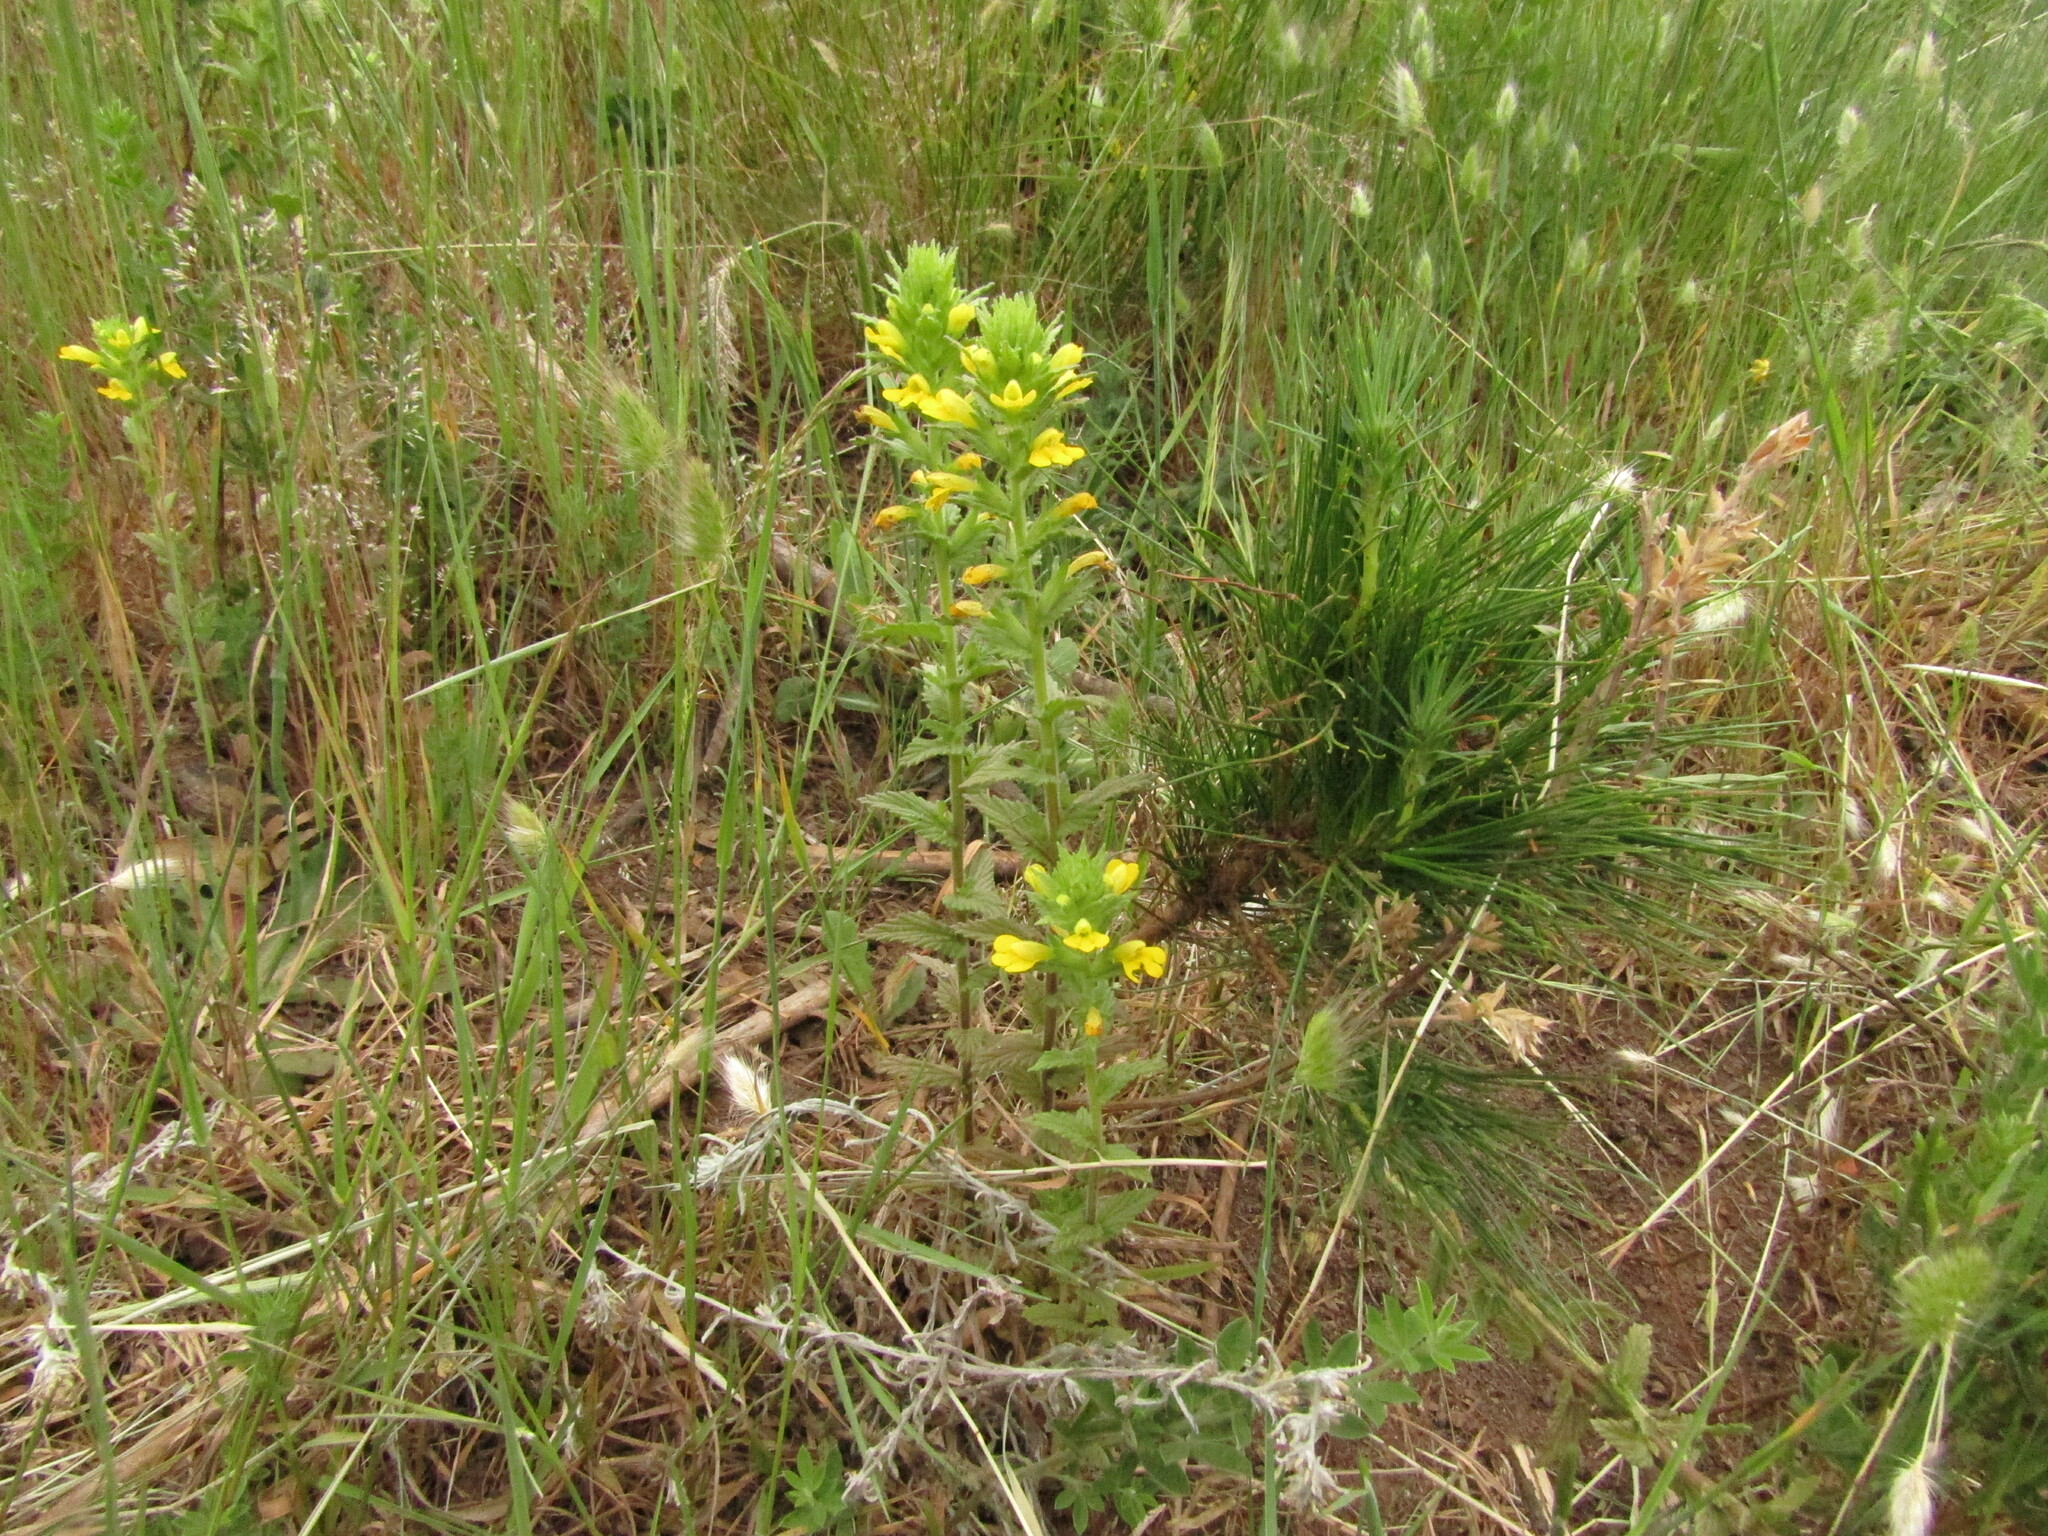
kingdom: Plantae
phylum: Tracheophyta
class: Magnoliopsida
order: Lamiales
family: Orobanchaceae
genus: Bellardia
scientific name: Bellardia viscosa
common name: Sticky parentucellia
